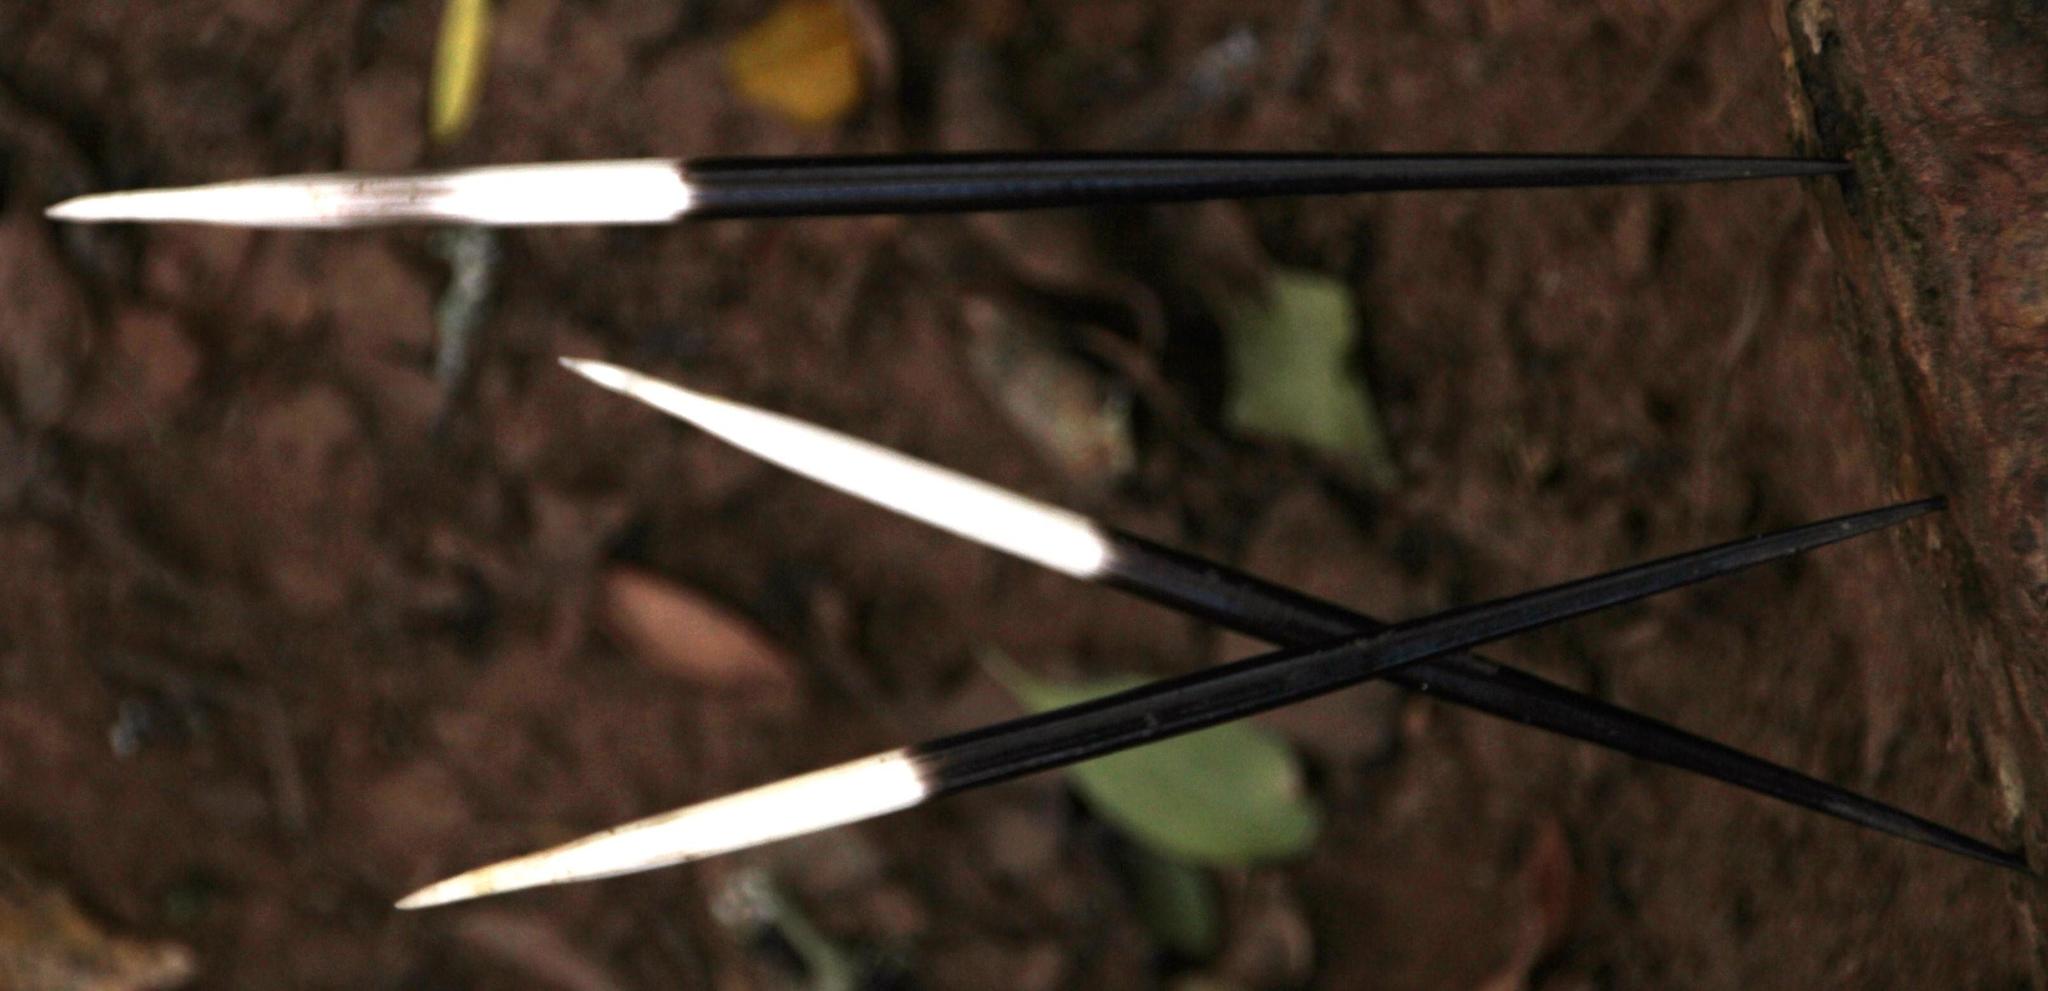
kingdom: Animalia
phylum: Chordata
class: Mammalia
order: Rodentia
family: Hystricidae
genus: Hystrix
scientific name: Hystrix africaeaustralis
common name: Cape porcupine
